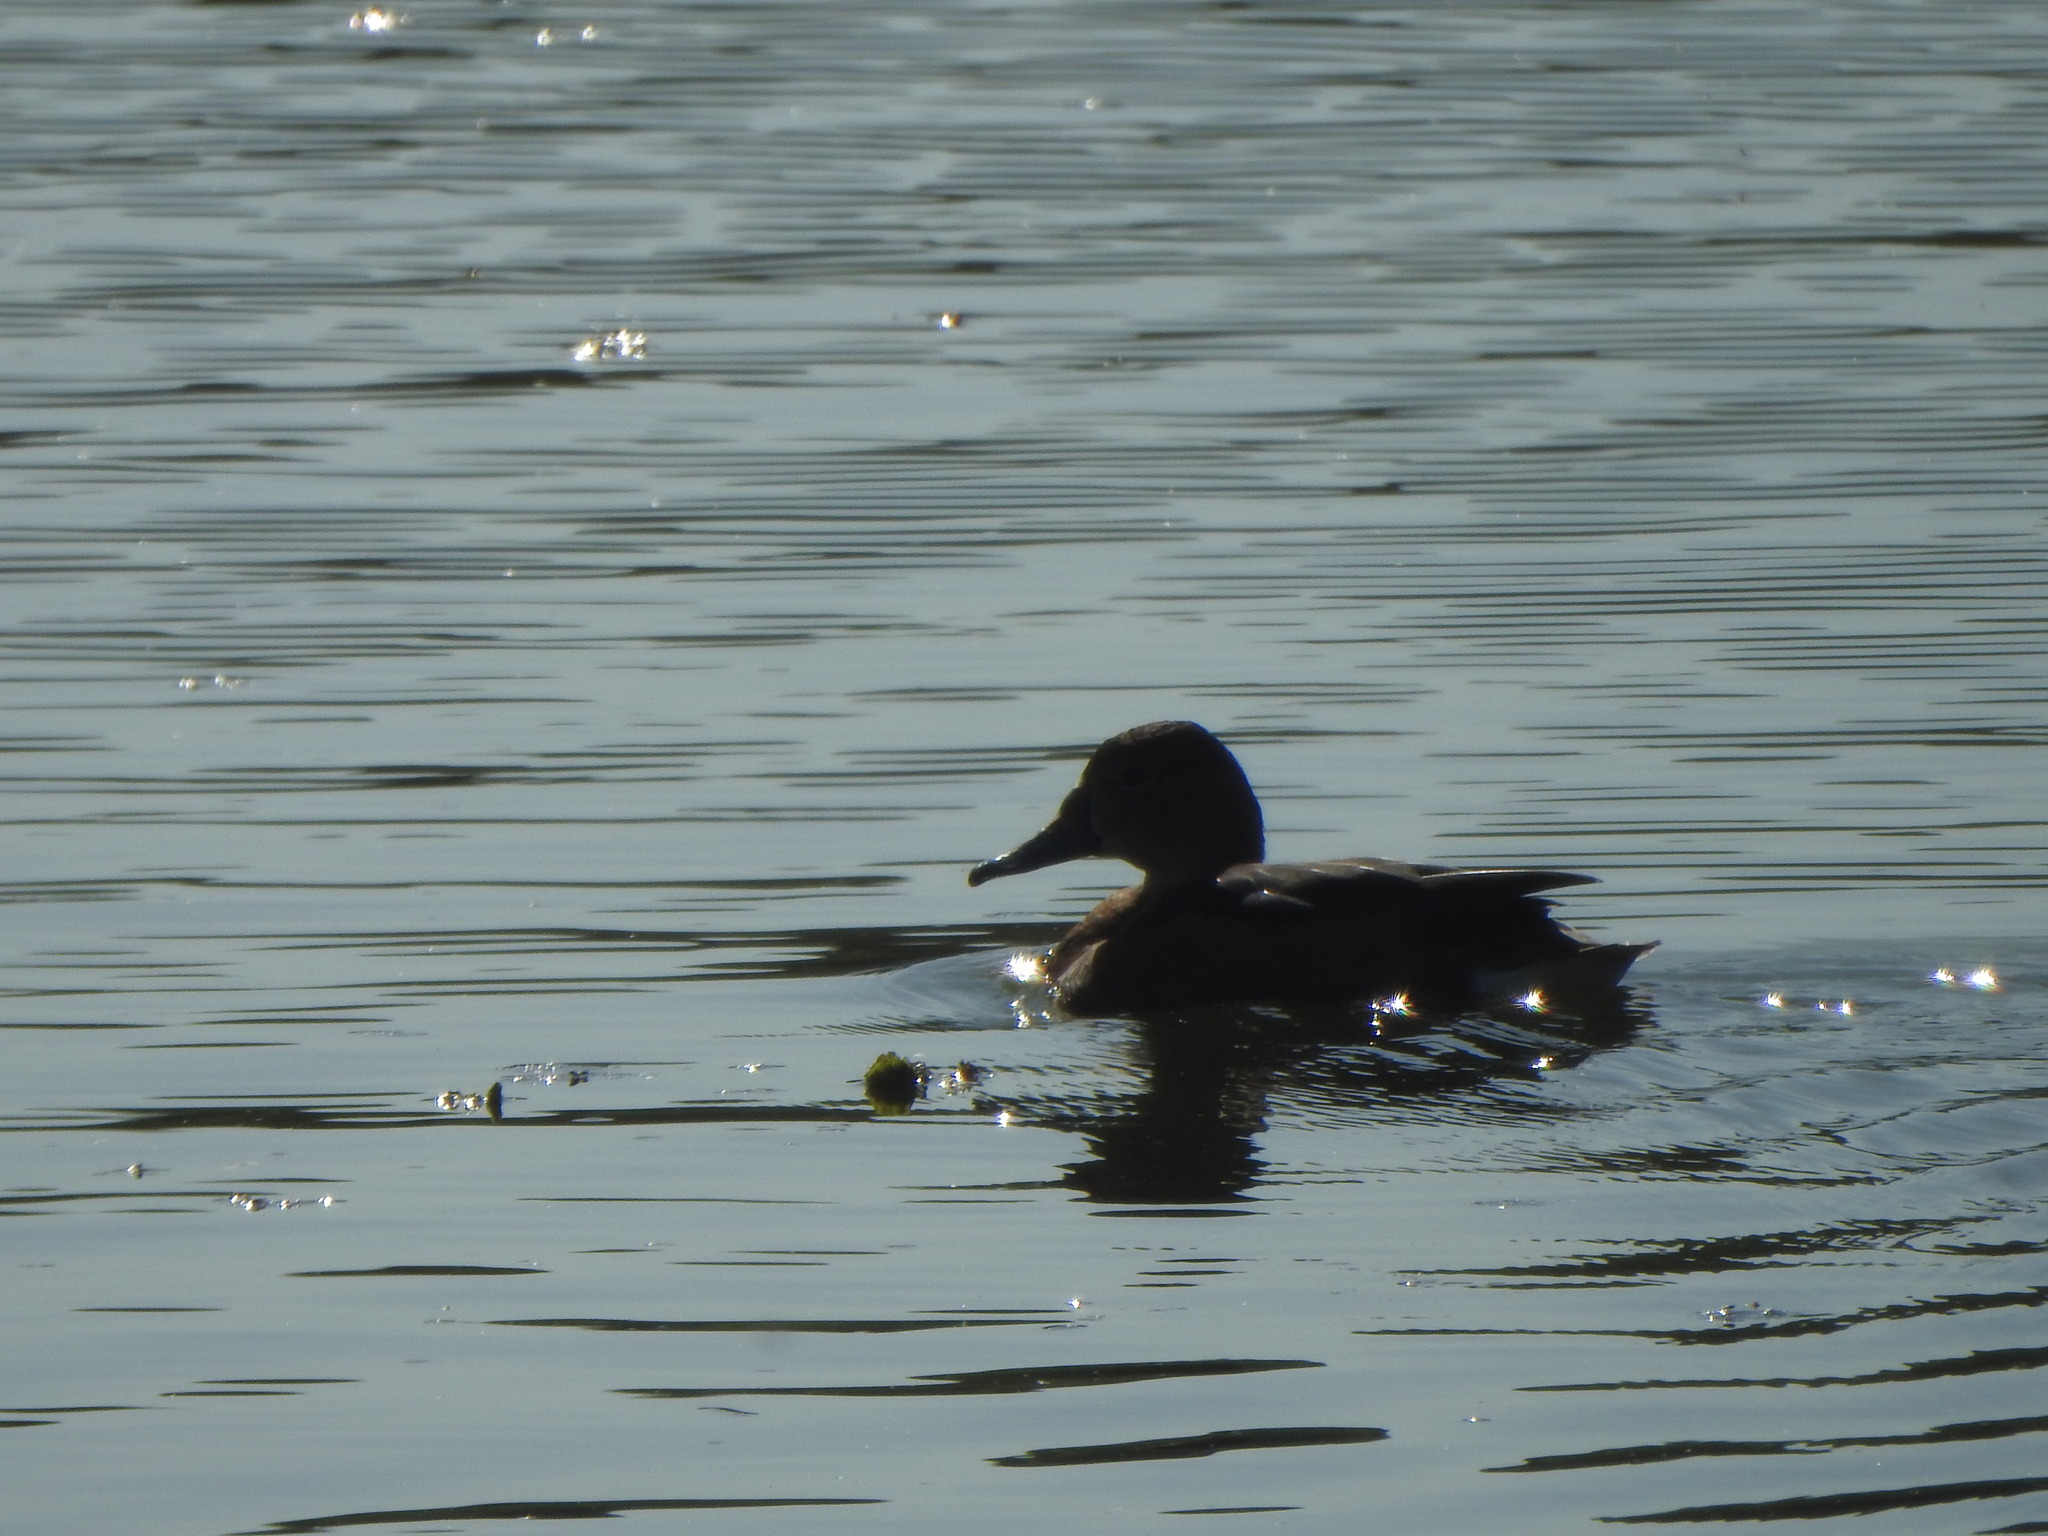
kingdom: Animalia
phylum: Chordata
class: Aves
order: Anseriformes
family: Anatidae
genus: Netta
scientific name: Netta peposaca
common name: Rosy-billed pochard
